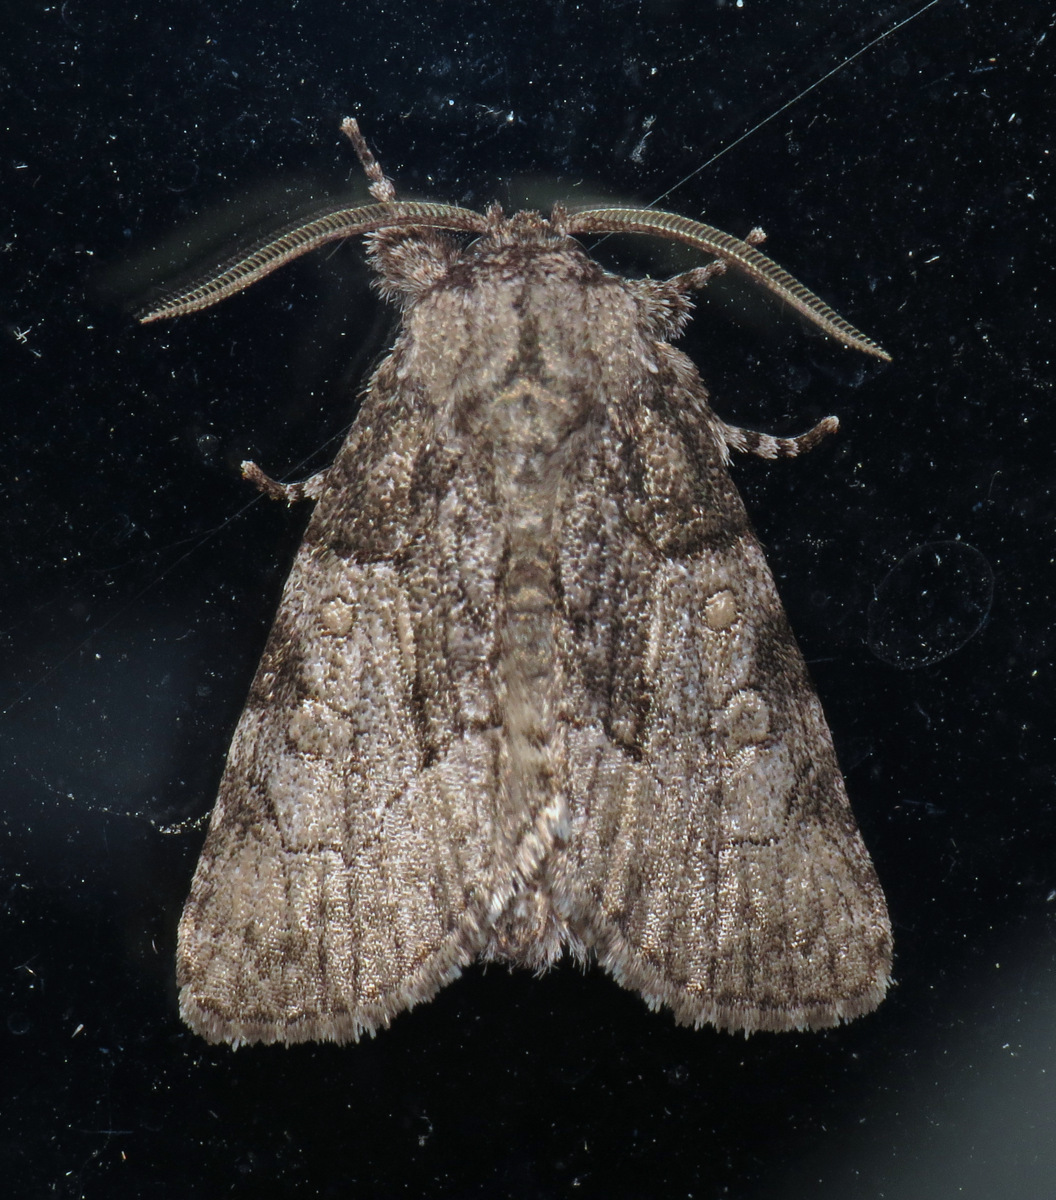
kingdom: Animalia
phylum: Arthropoda
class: Insecta
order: Lepidoptera
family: Noctuidae
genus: Raphia
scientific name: Raphia frater
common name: Brother
